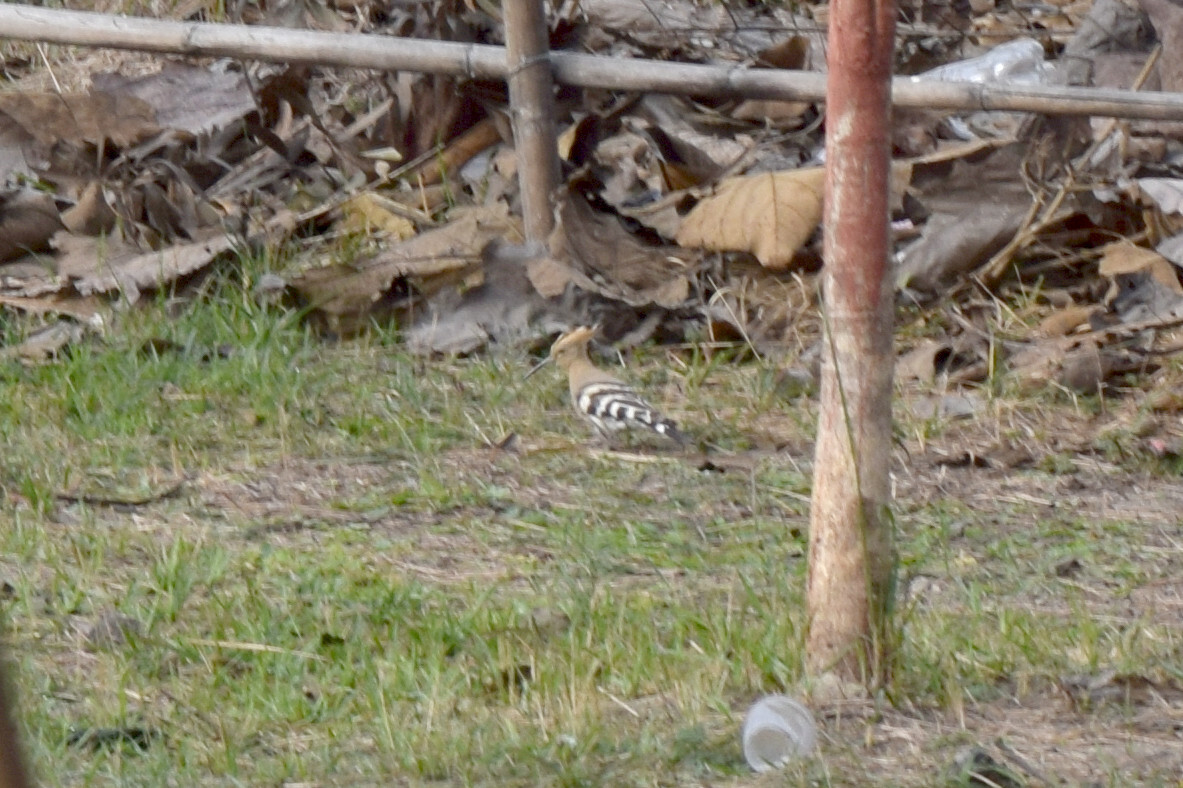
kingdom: Animalia
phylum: Chordata
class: Aves
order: Bucerotiformes
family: Upupidae
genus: Upupa
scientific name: Upupa epops
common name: Eurasian hoopoe
